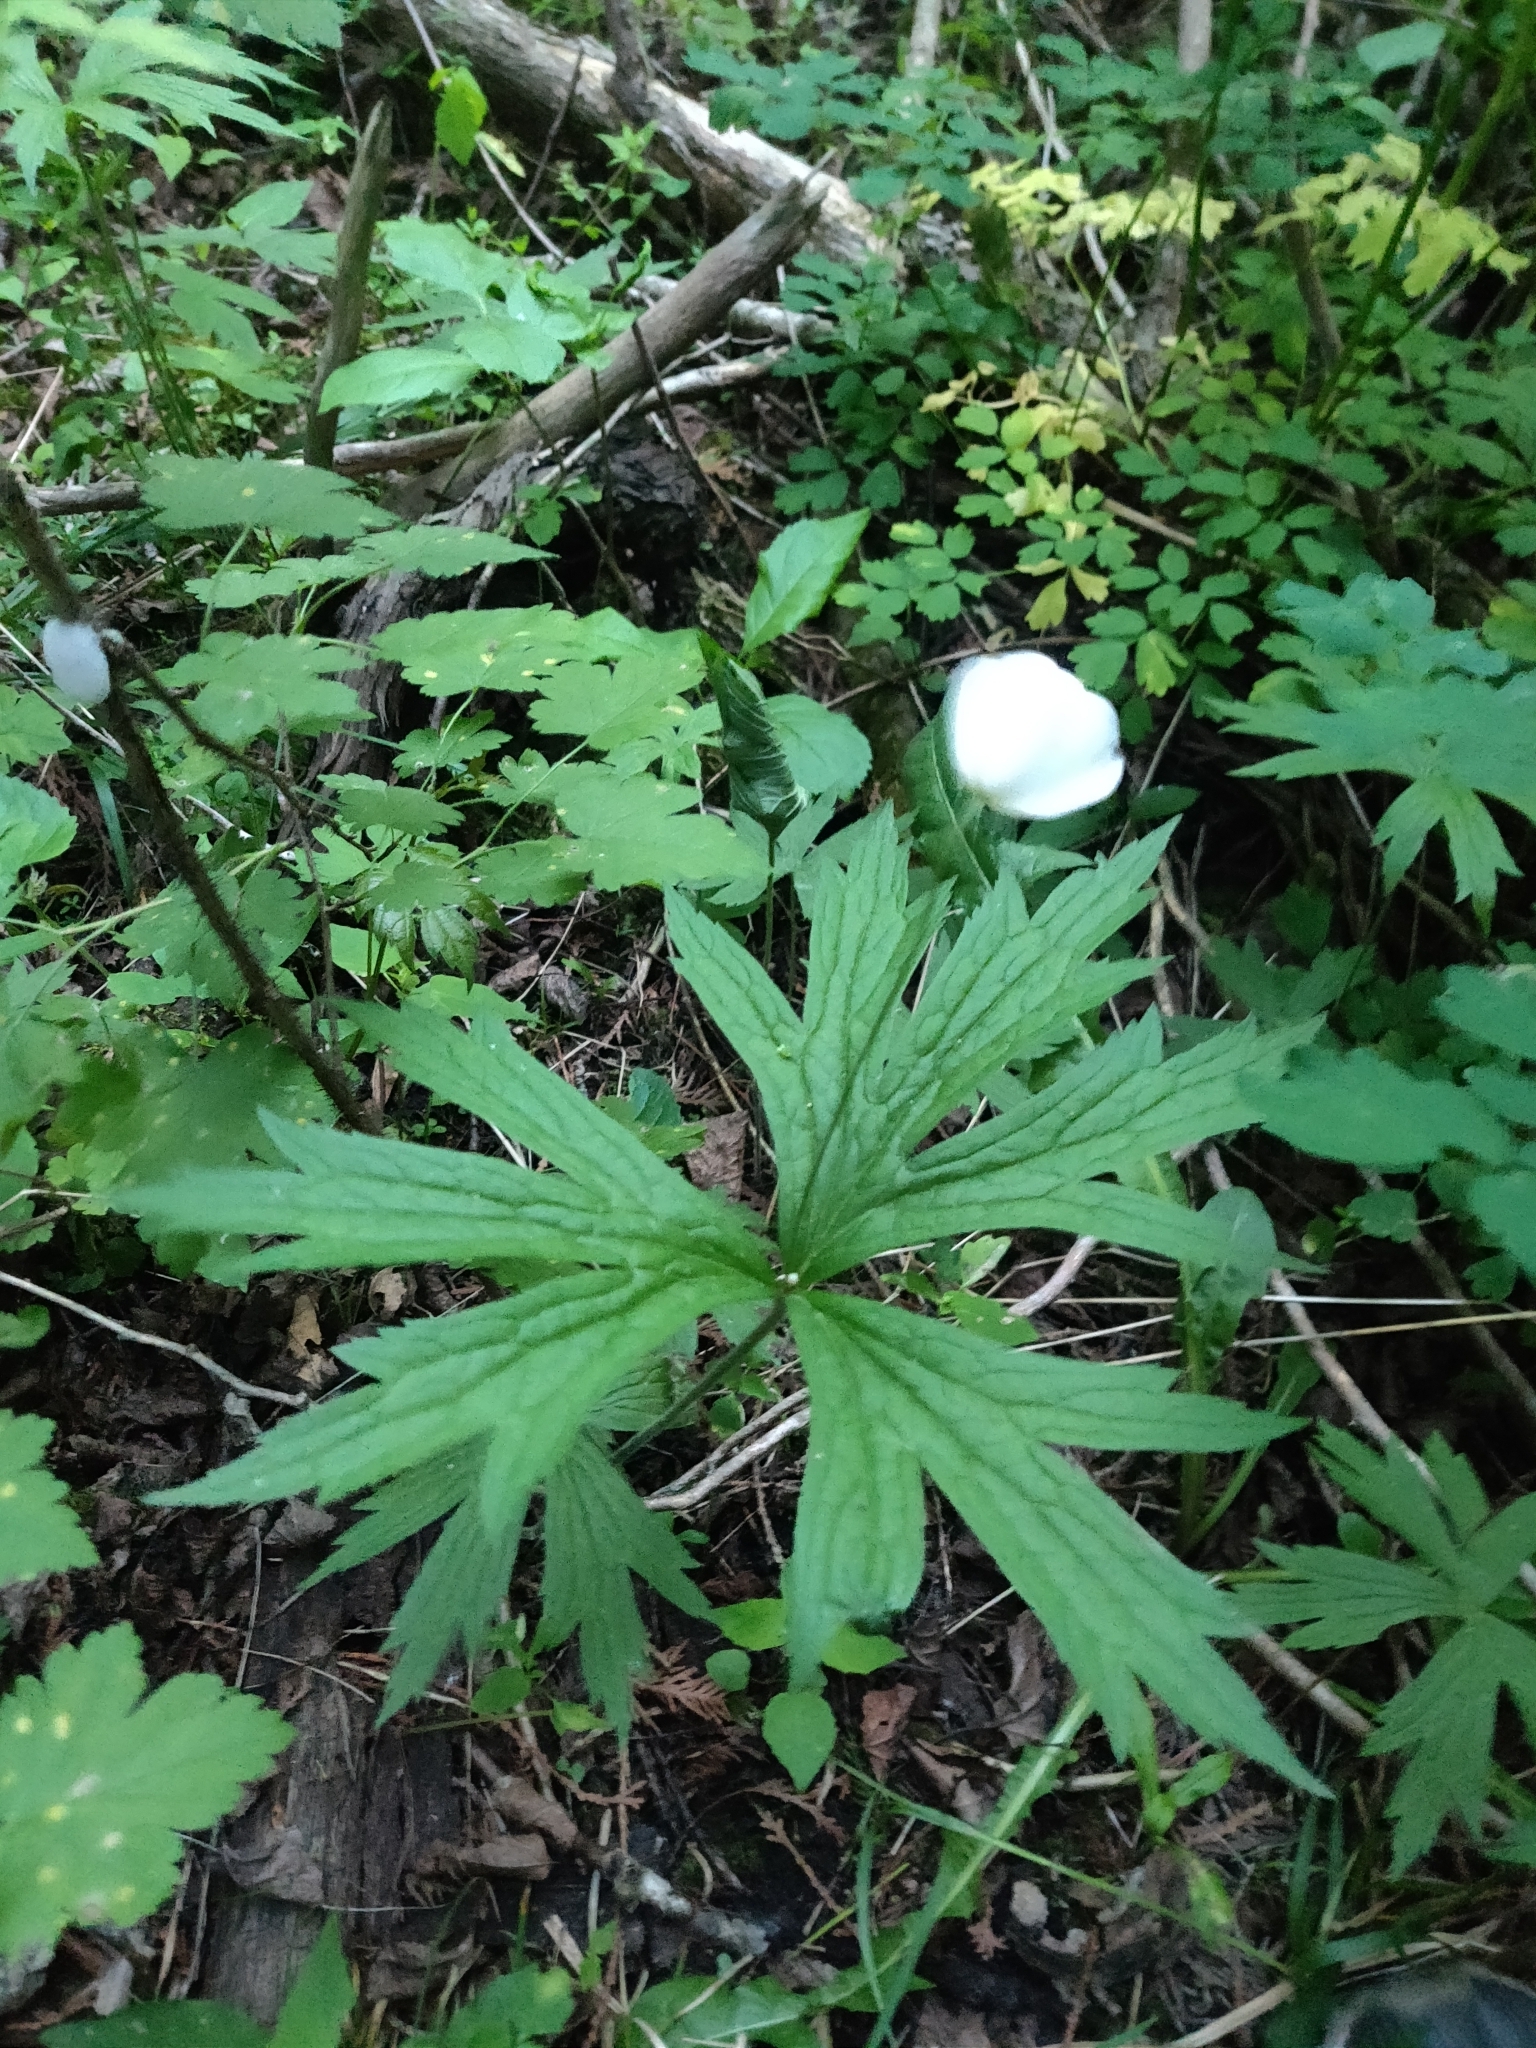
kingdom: Plantae
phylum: Tracheophyta
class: Magnoliopsida
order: Ranunculales
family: Ranunculaceae
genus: Anemonastrum
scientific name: Anemonastrum canadense
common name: Canada anemone
